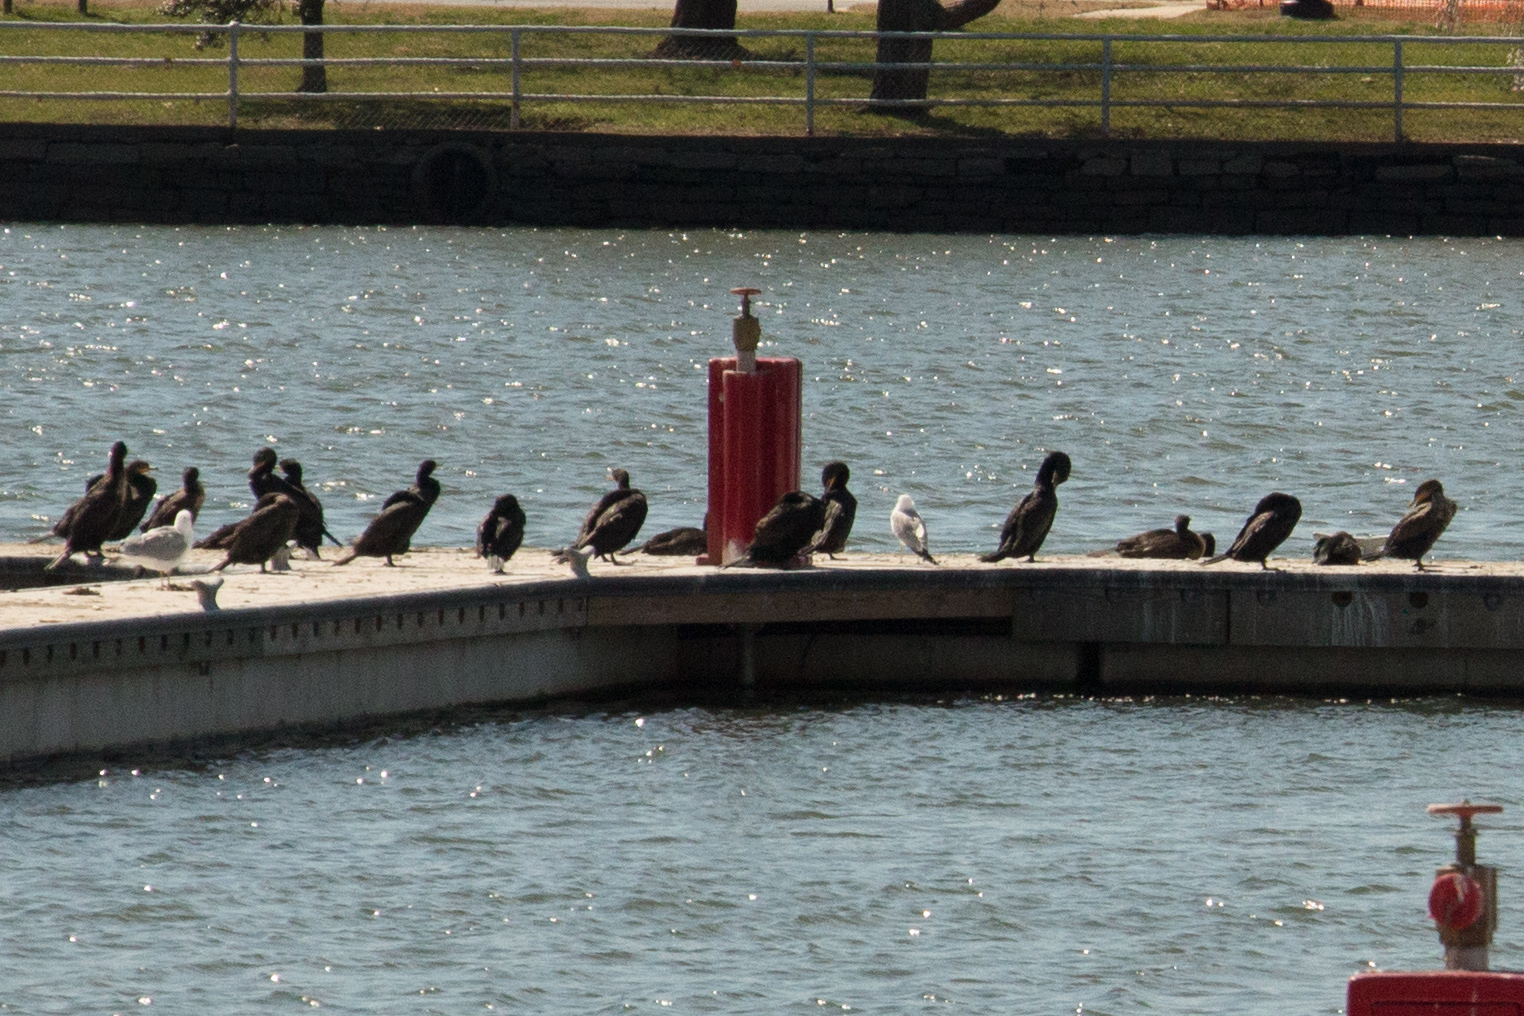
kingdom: Animalia
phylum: Chordata
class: Aves
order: Suliformes
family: Phalacrocoracidae
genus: Phalacrocorax
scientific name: Phalacrocorax auritus
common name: Double-crested cormorant
